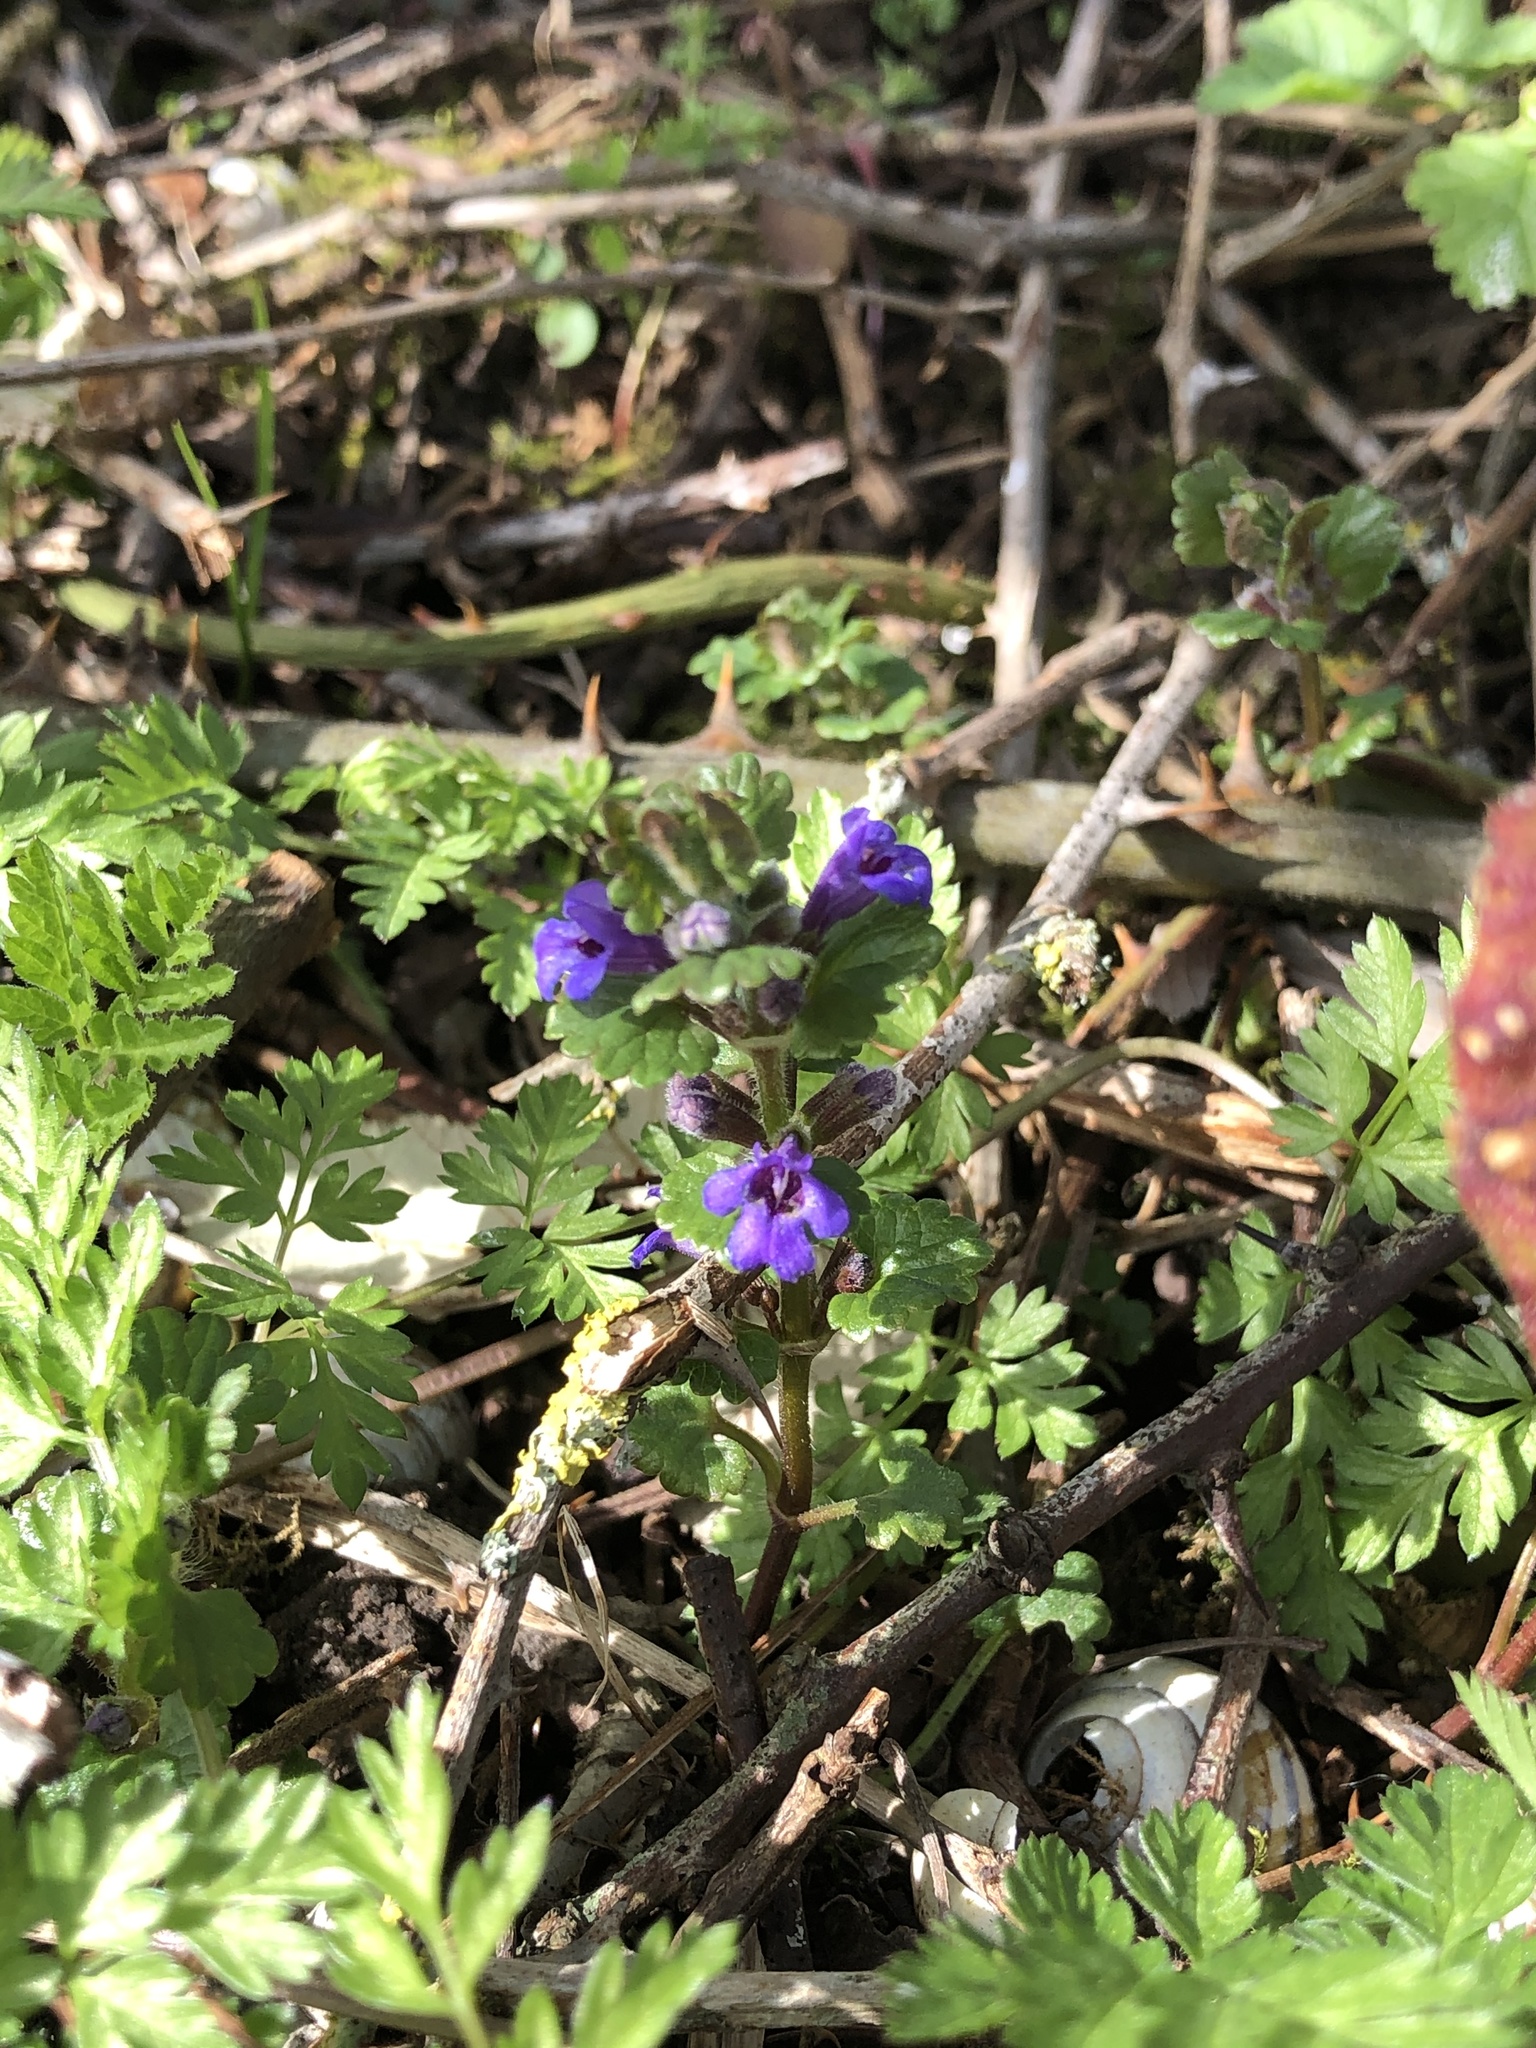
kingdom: Plantae
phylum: Tracheophyta
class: Magnoliopsida
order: Lamiales
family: Lamiaceae
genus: Glechoma
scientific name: Glechoma hederacea
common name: Ground ivy
